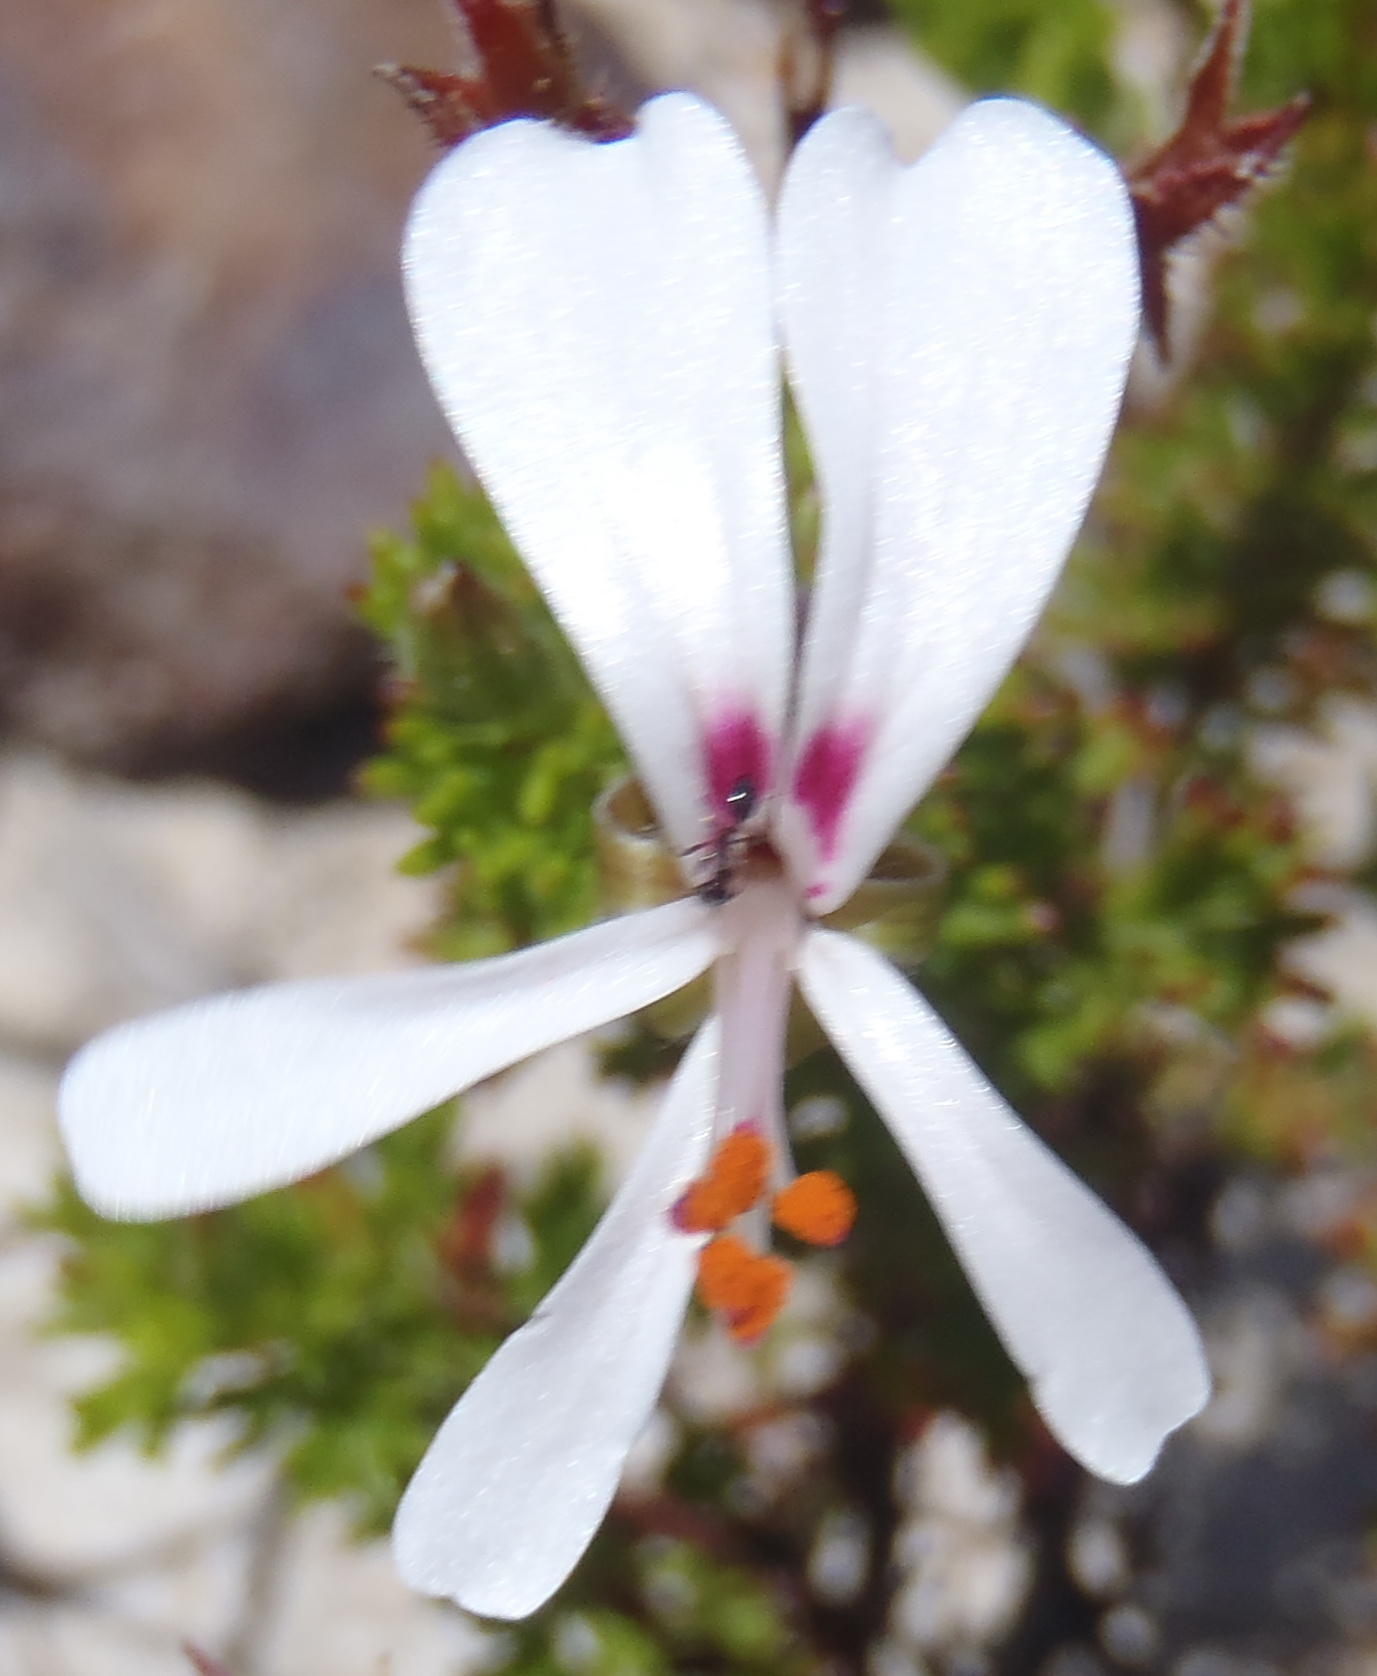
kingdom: Plantae
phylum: Tracheophyta
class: Magnoliopsida
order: Geraniales
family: Geraniaceae
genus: Pelargonium
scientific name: Pelargonium fruticosum
